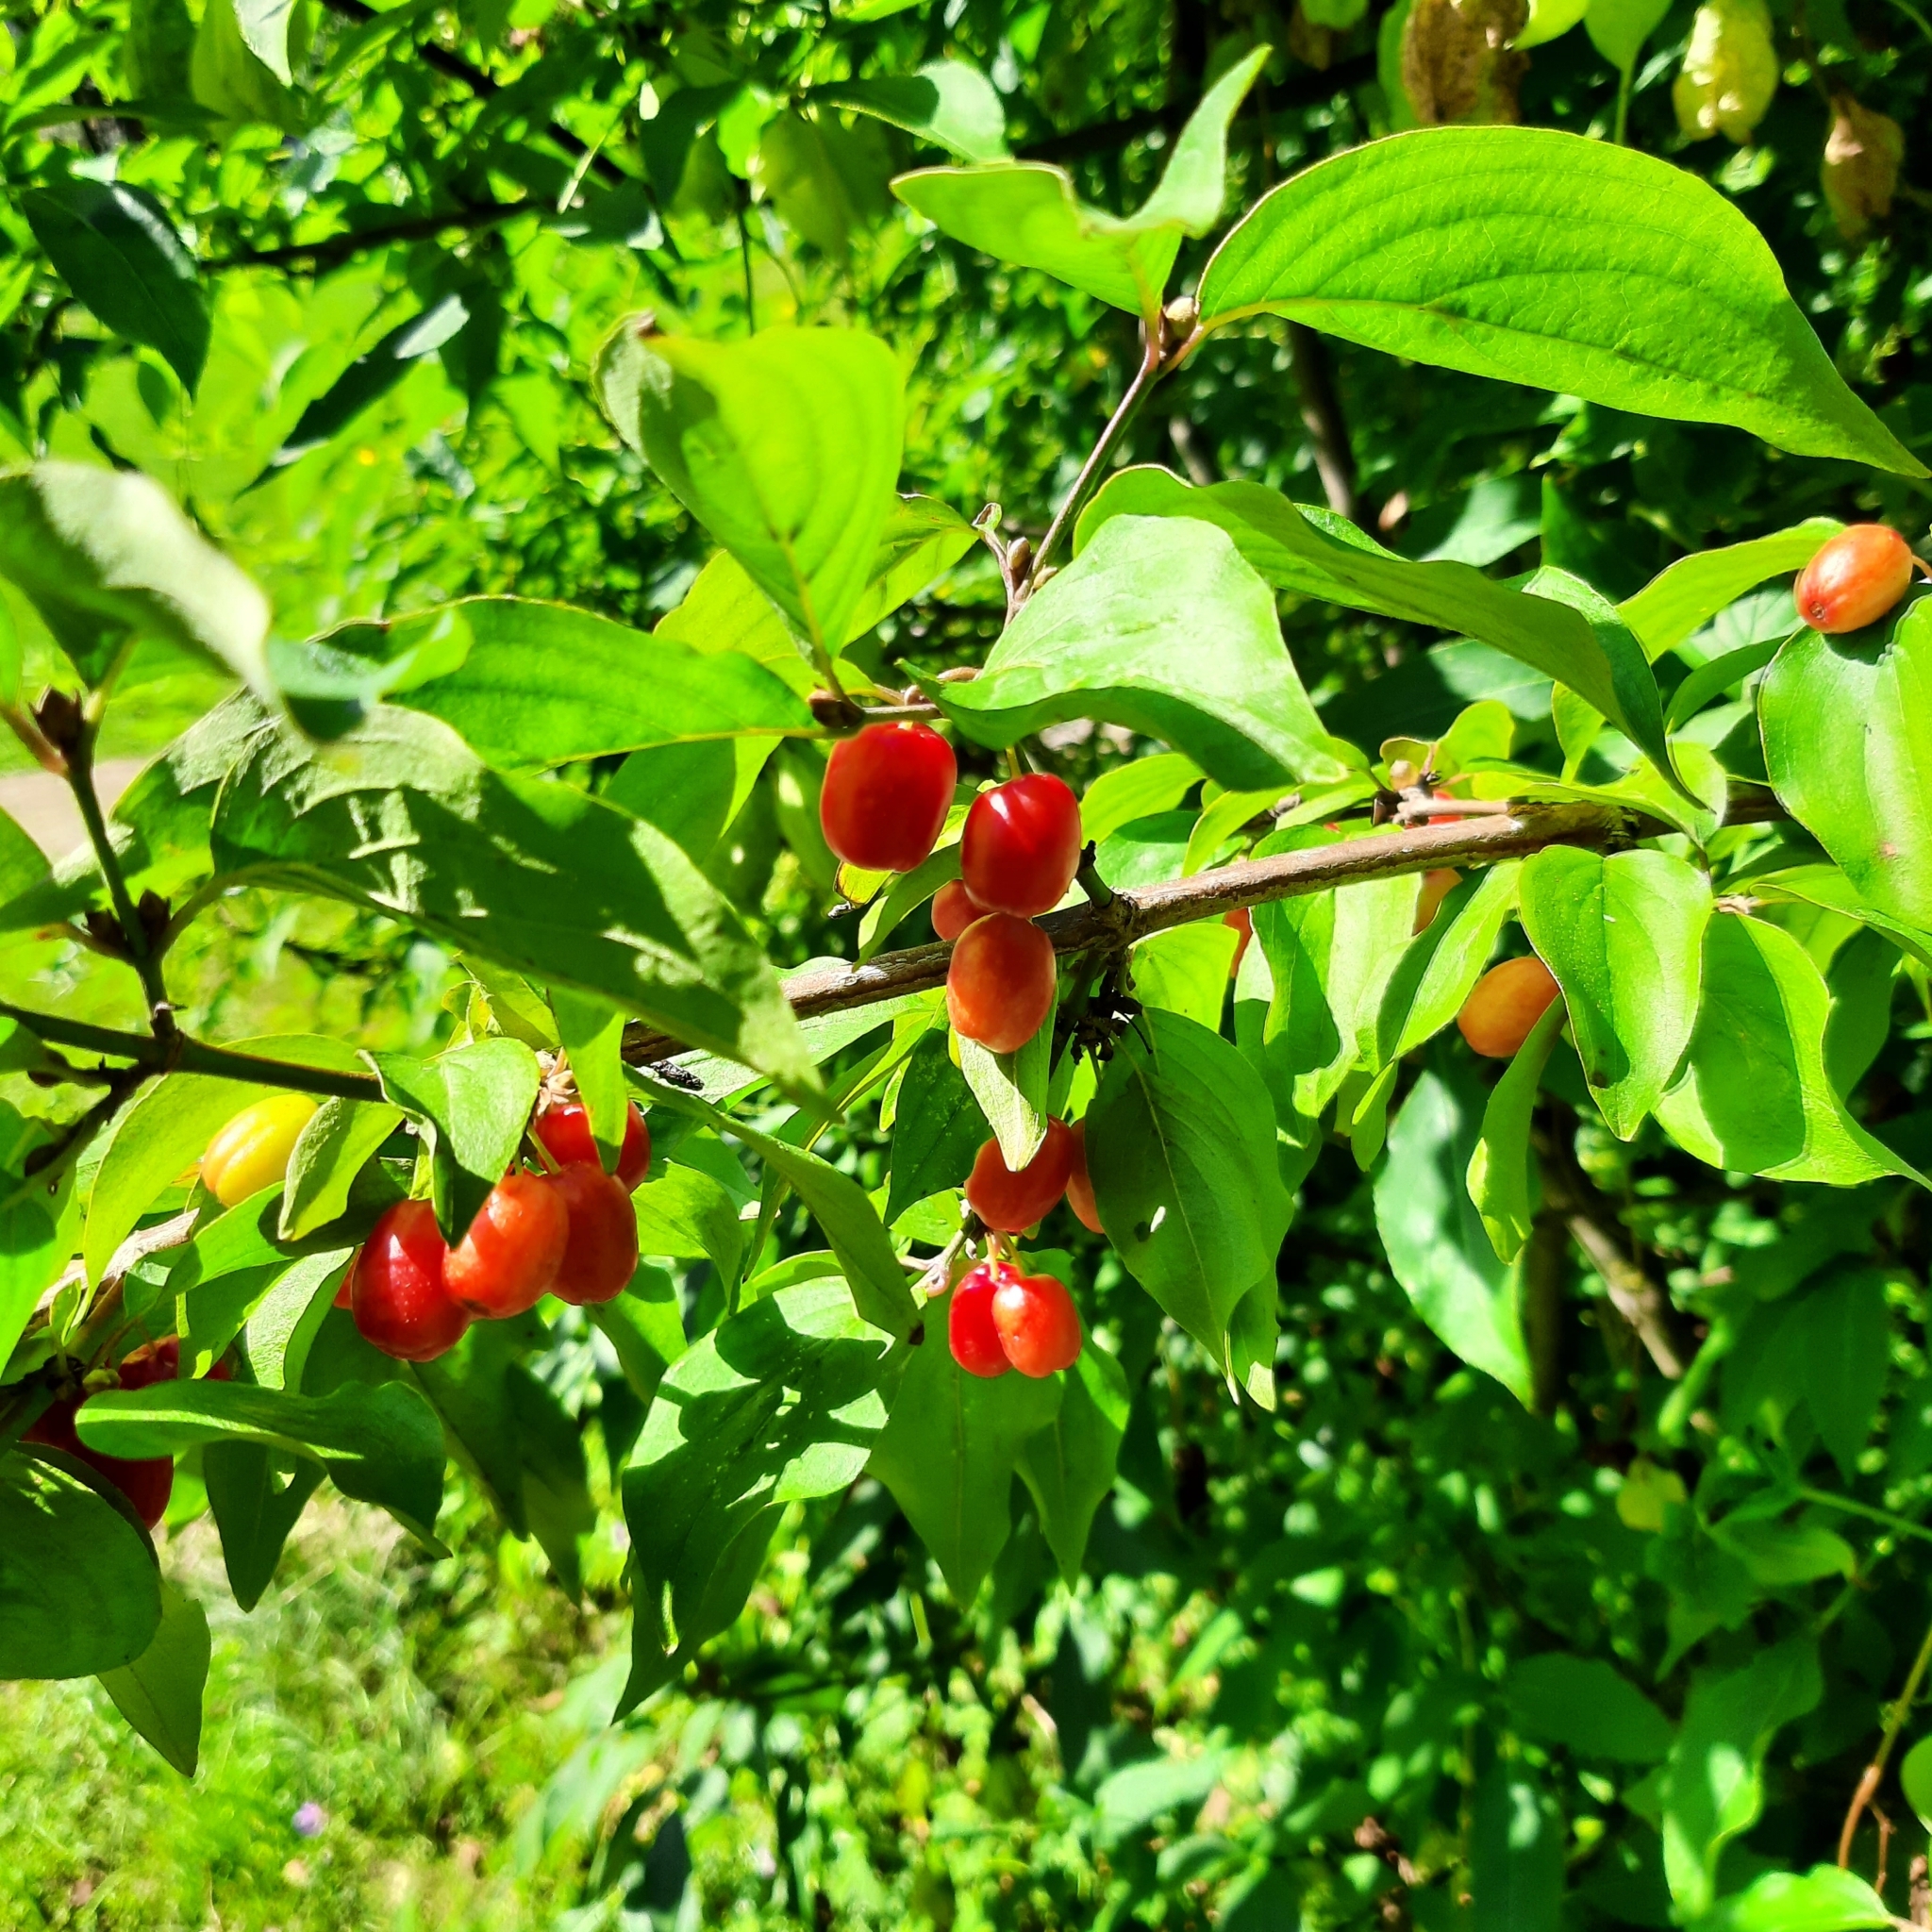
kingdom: Plantae
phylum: Tracheophyta
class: Magnoliopsida
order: Cornales
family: Cornaceae
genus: Cornus
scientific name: Cornus mas
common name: Cornelian-cherry
